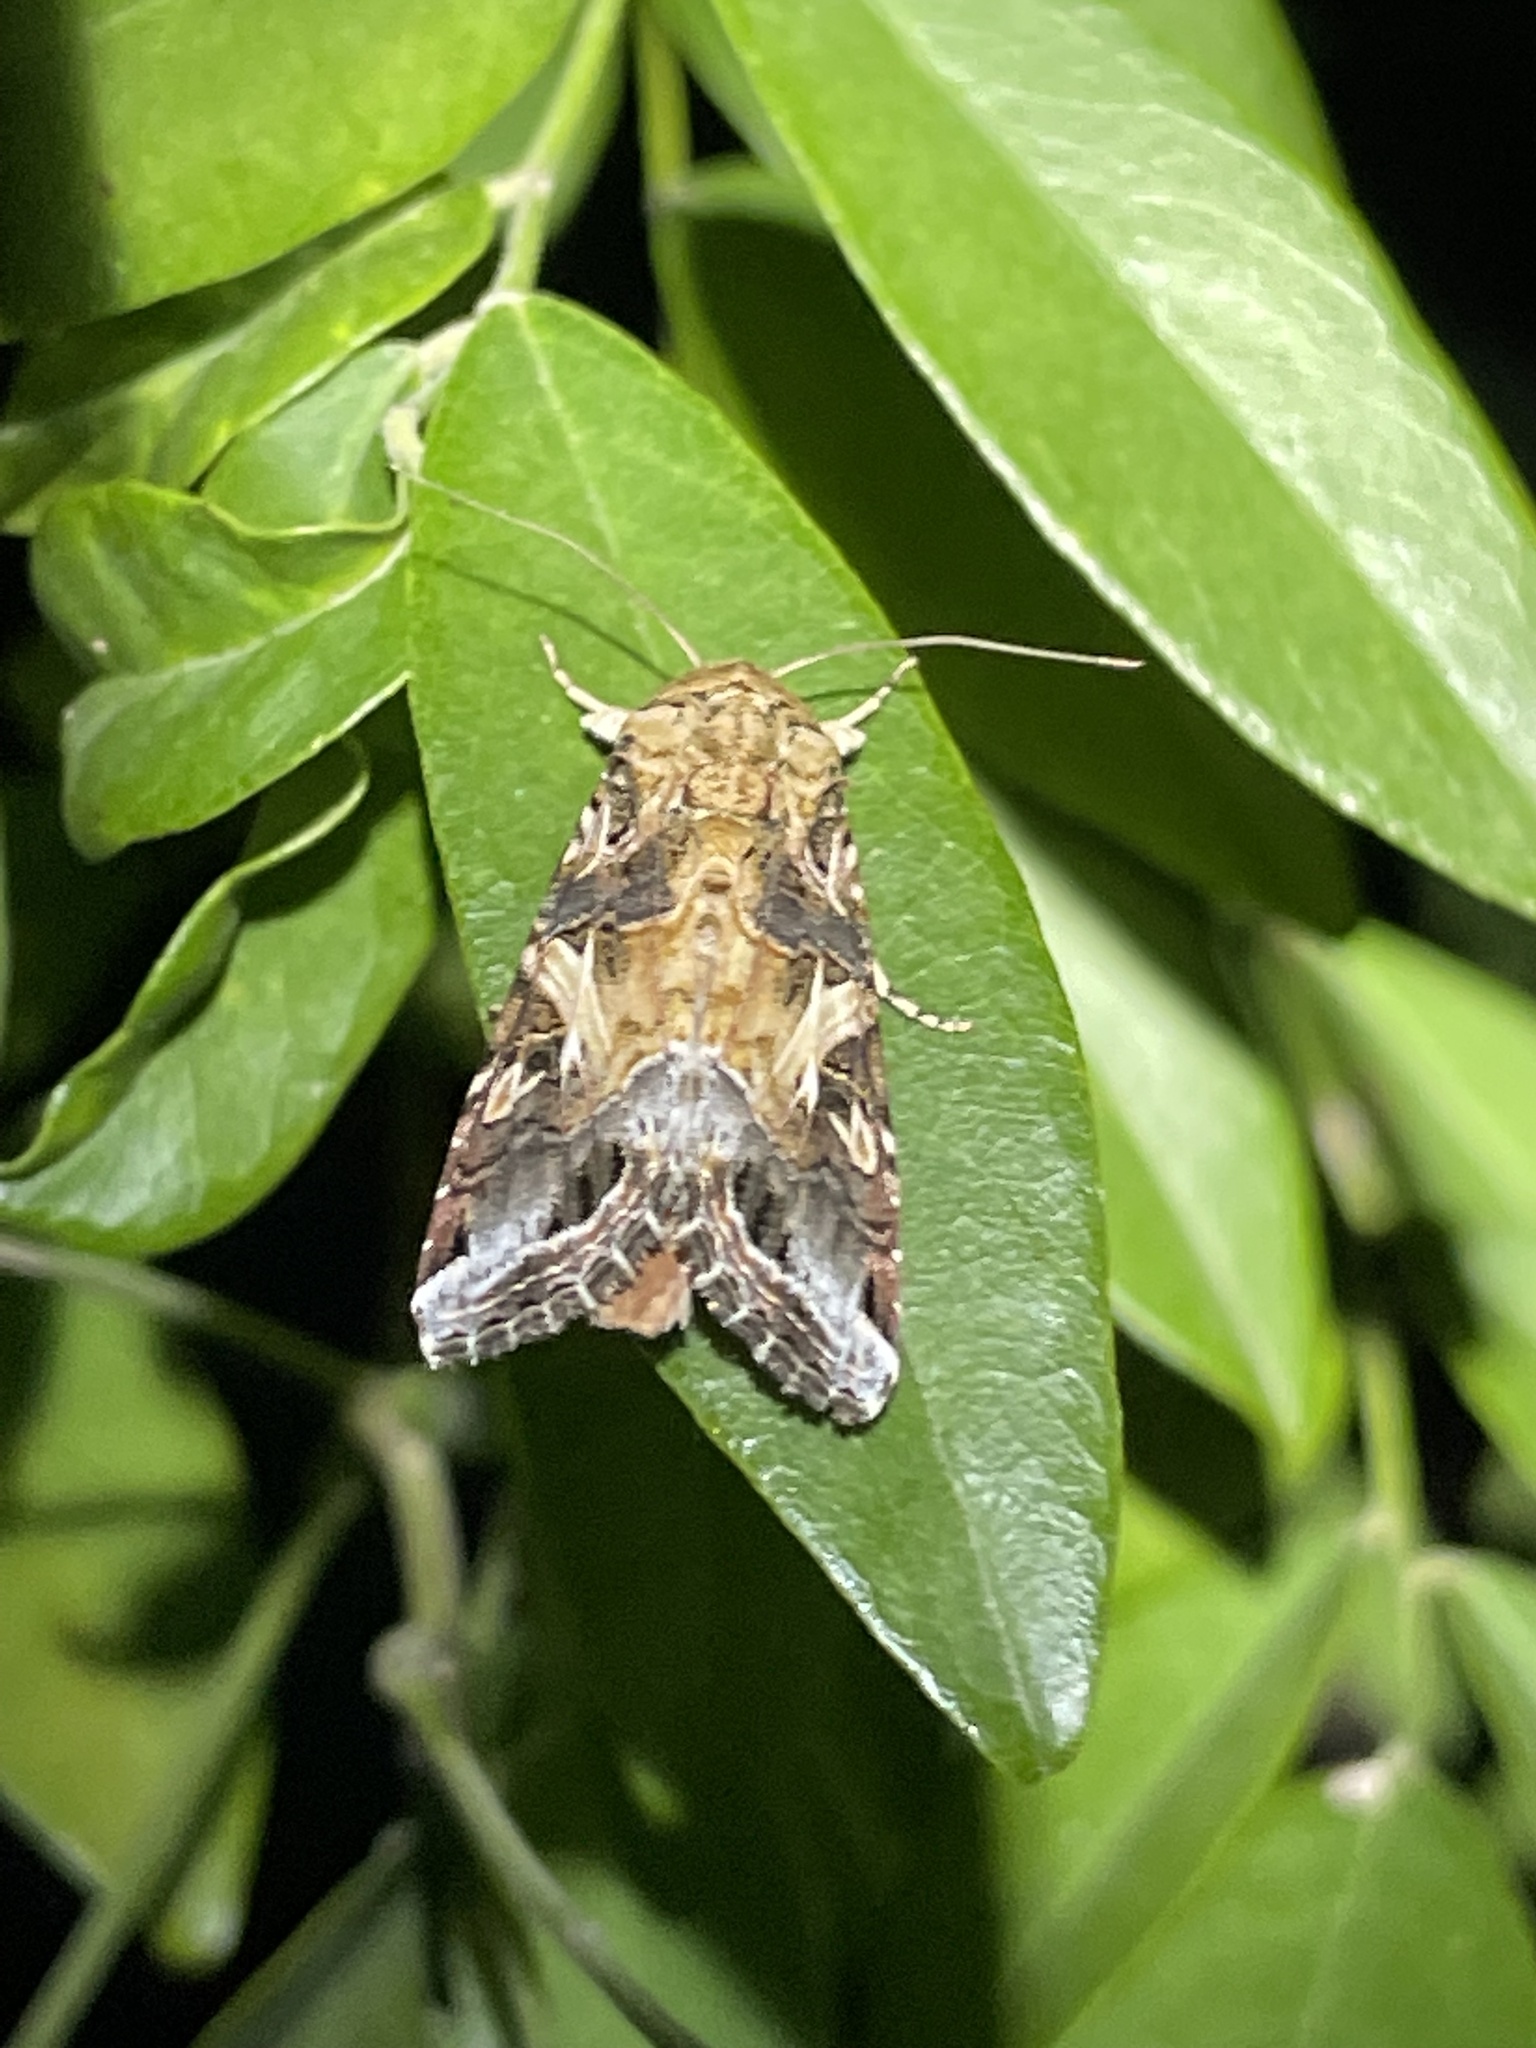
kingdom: Animalia
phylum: Arthropoda
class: Insecta
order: Lepidoptera
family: Noctuidae
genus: Spodoptera
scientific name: Spodoptera ornithogalli
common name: Yellow-striped armyworm
